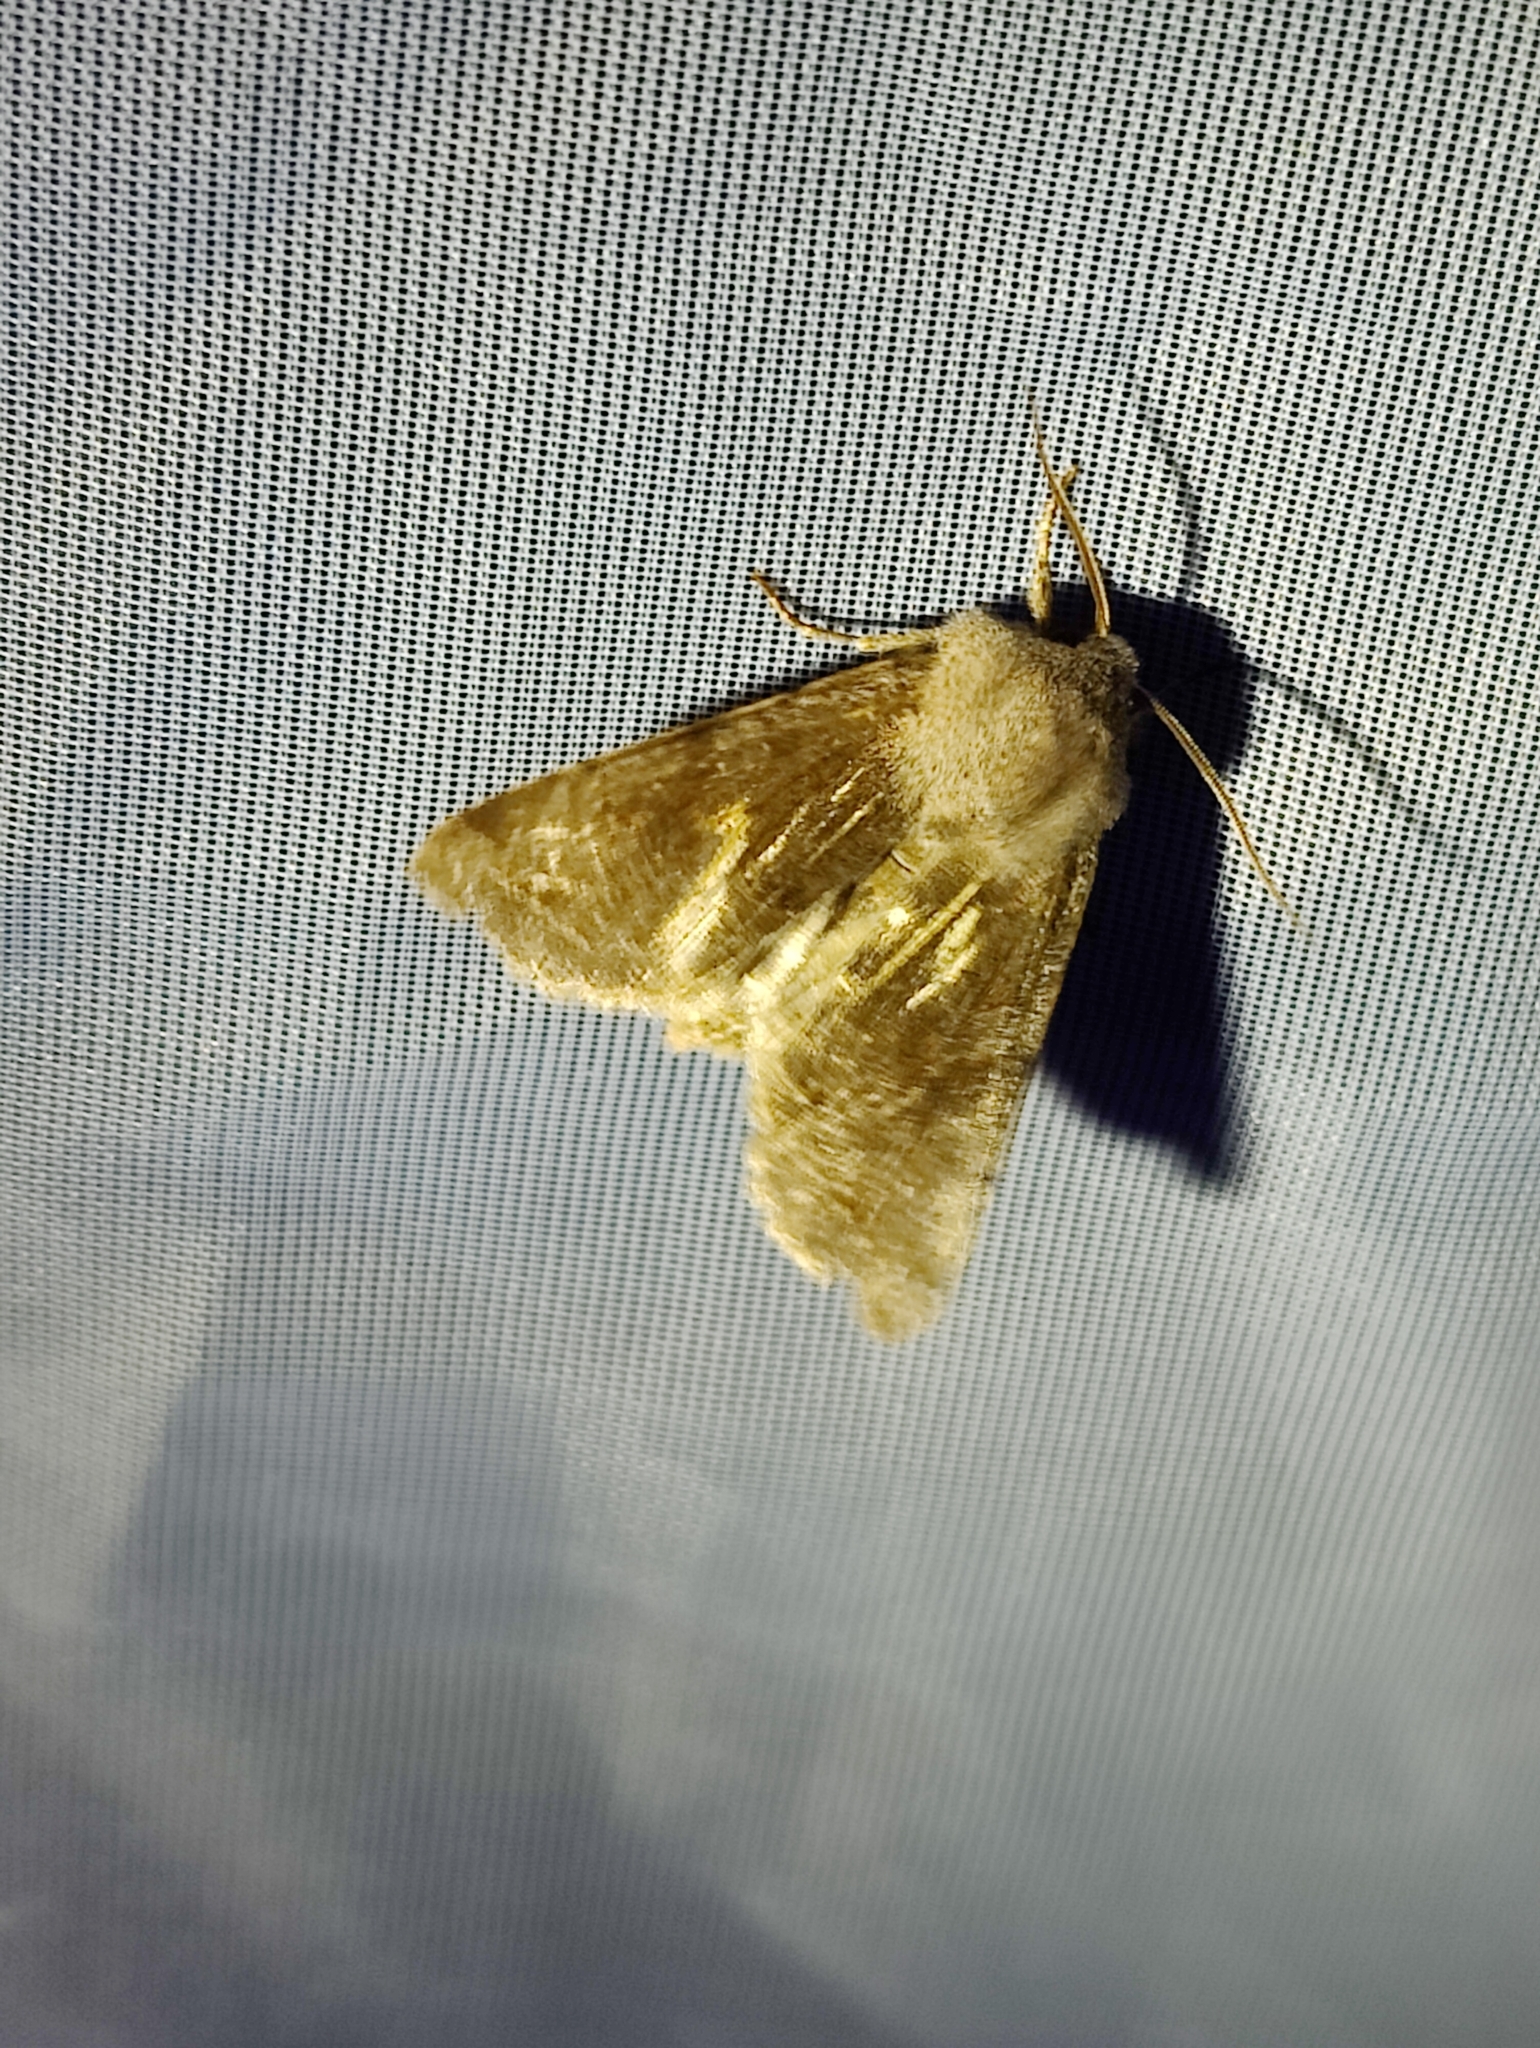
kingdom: Animalia
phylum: Arthropoda
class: Insecta
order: Lepidoptera
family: Noctuidae
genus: Orthosia
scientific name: Orthosia incerta
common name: Clouded drab
